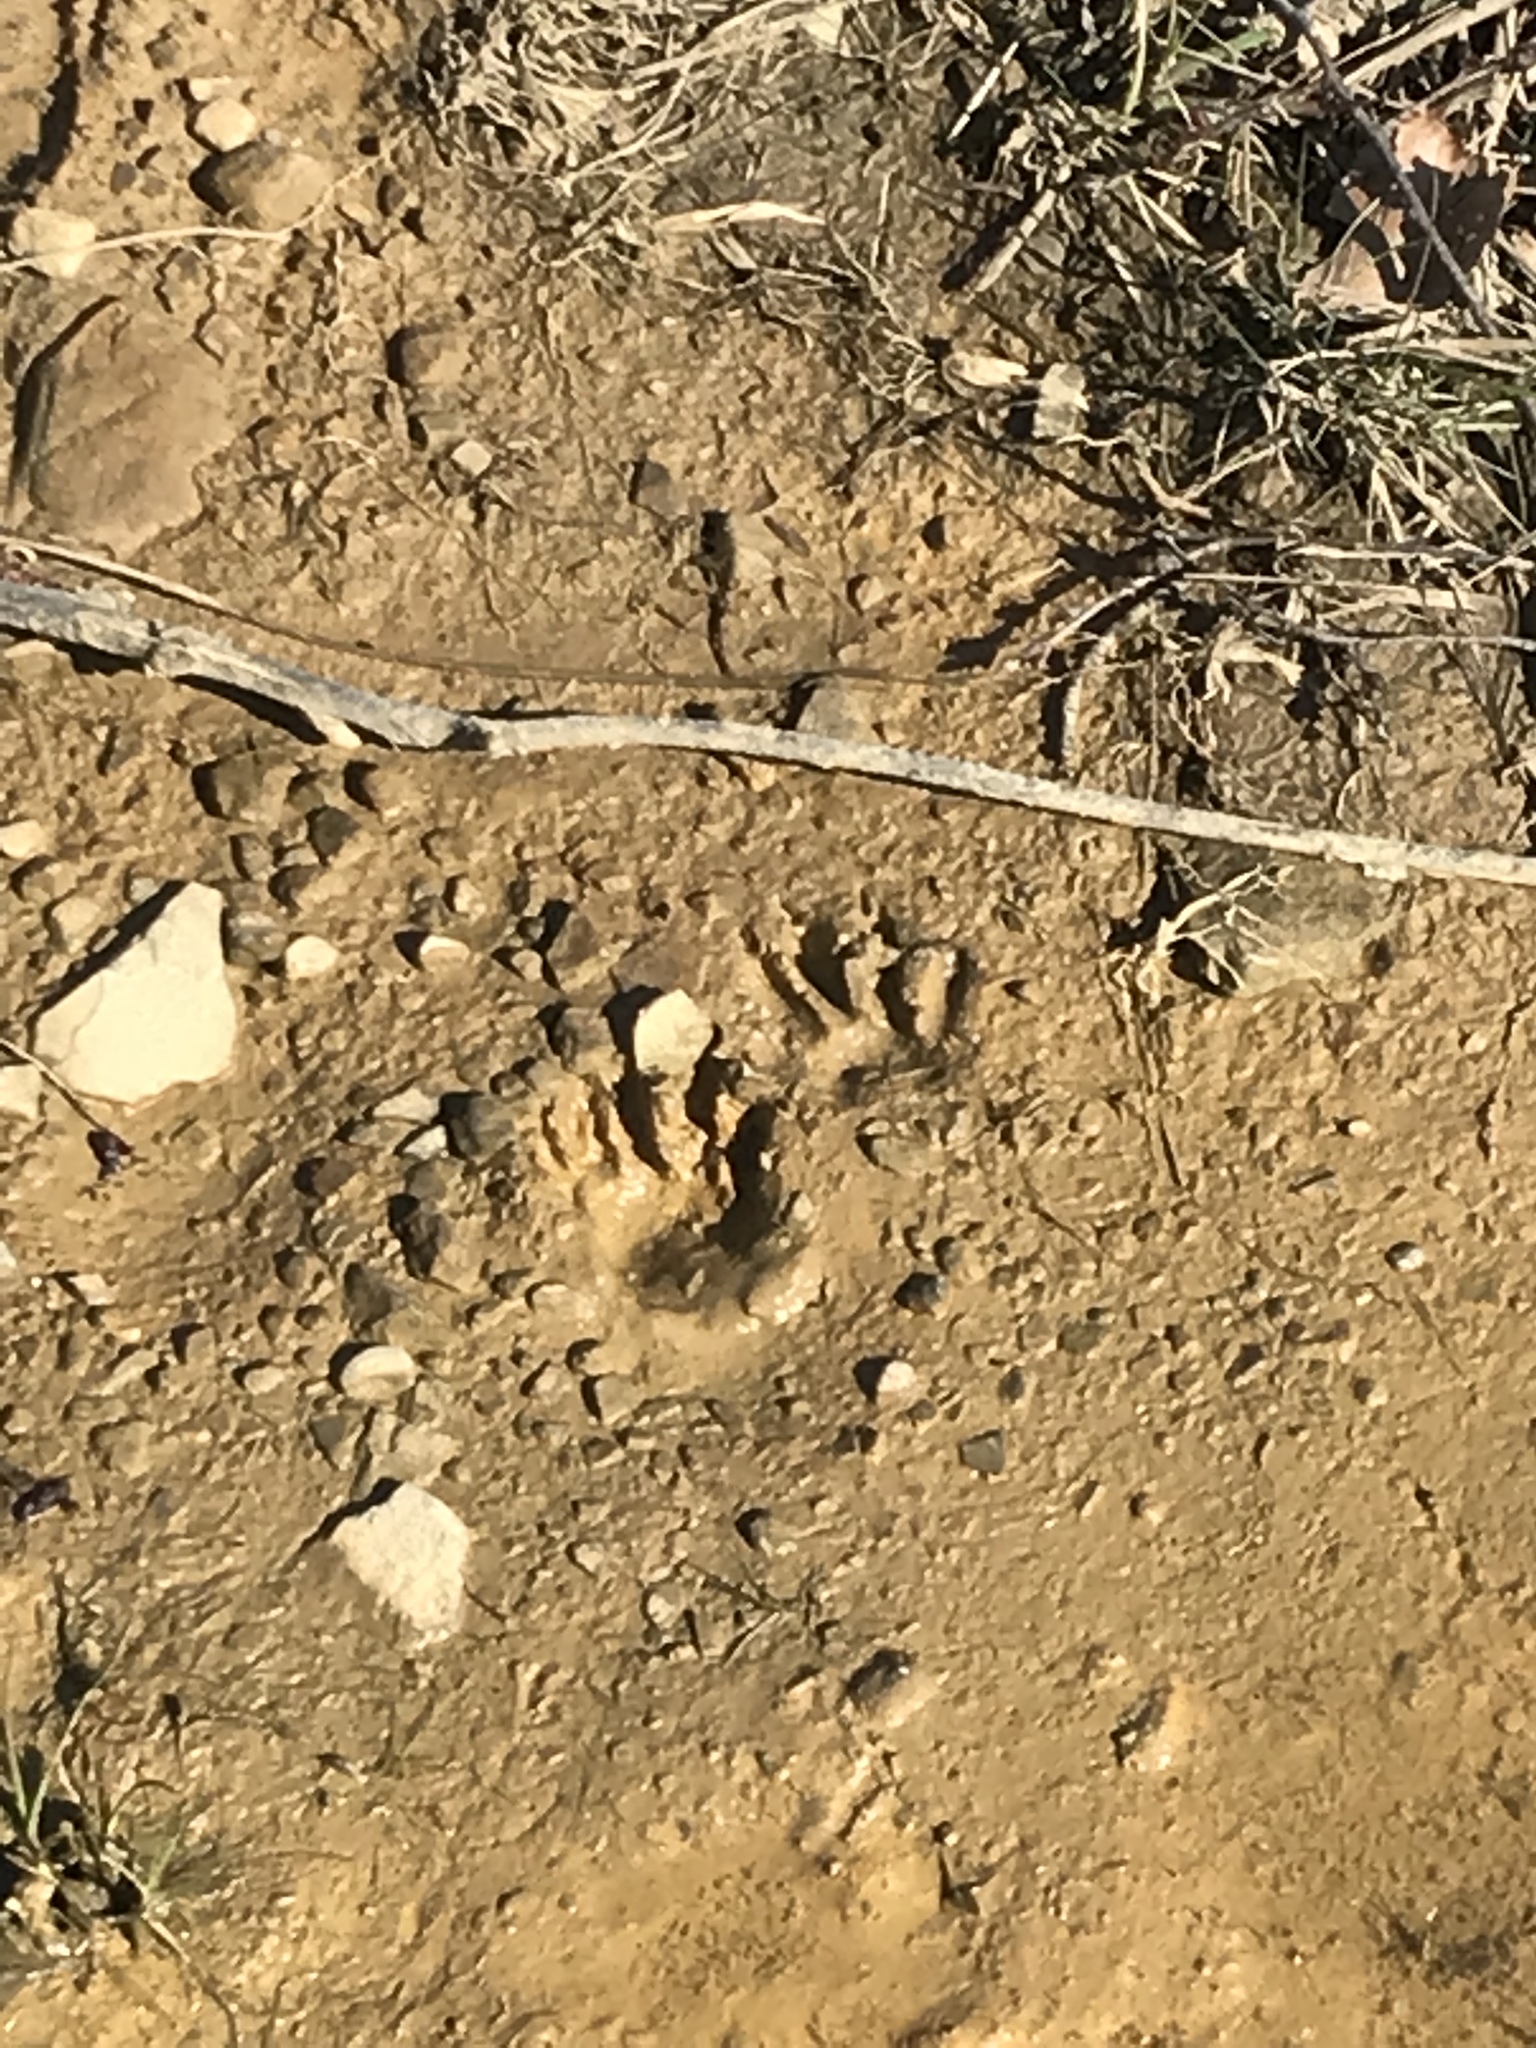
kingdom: Animalia
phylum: Chordata
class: Mammalia
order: Carnivora
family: Procyonidae
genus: Procyon
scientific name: Procyon lotor
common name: Raccoon
